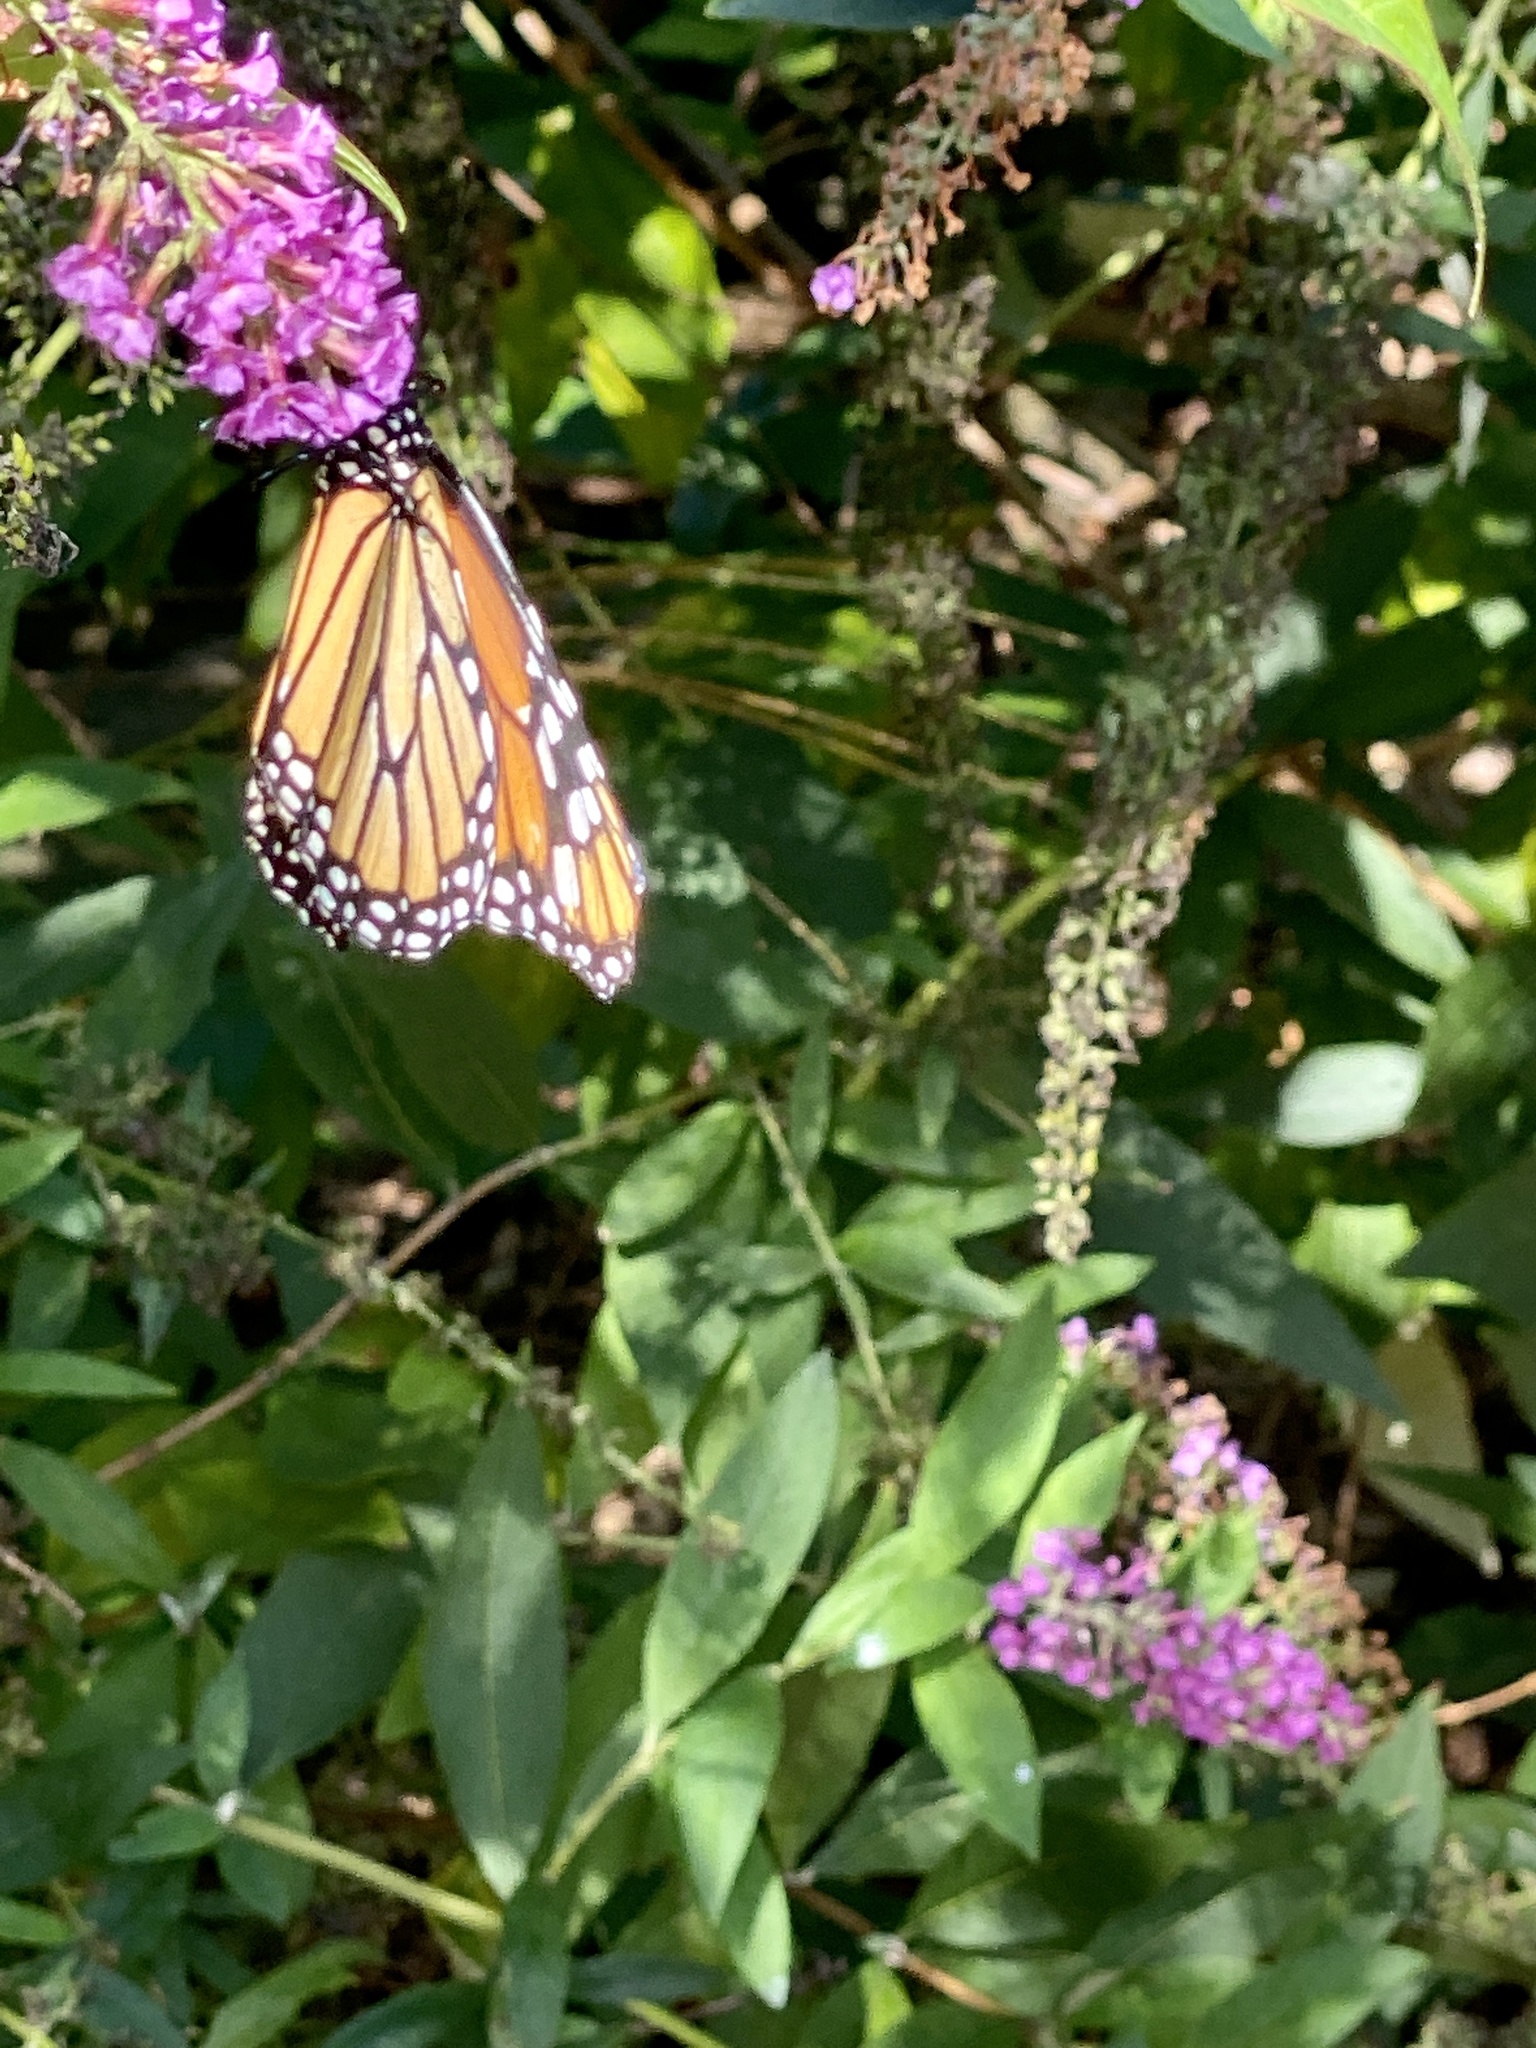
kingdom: Animalia
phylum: Arthropoda
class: Insecta
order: Lepidoptera
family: Nymphalidae
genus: Danaus
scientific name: Danaus plexippus
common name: Monarch
